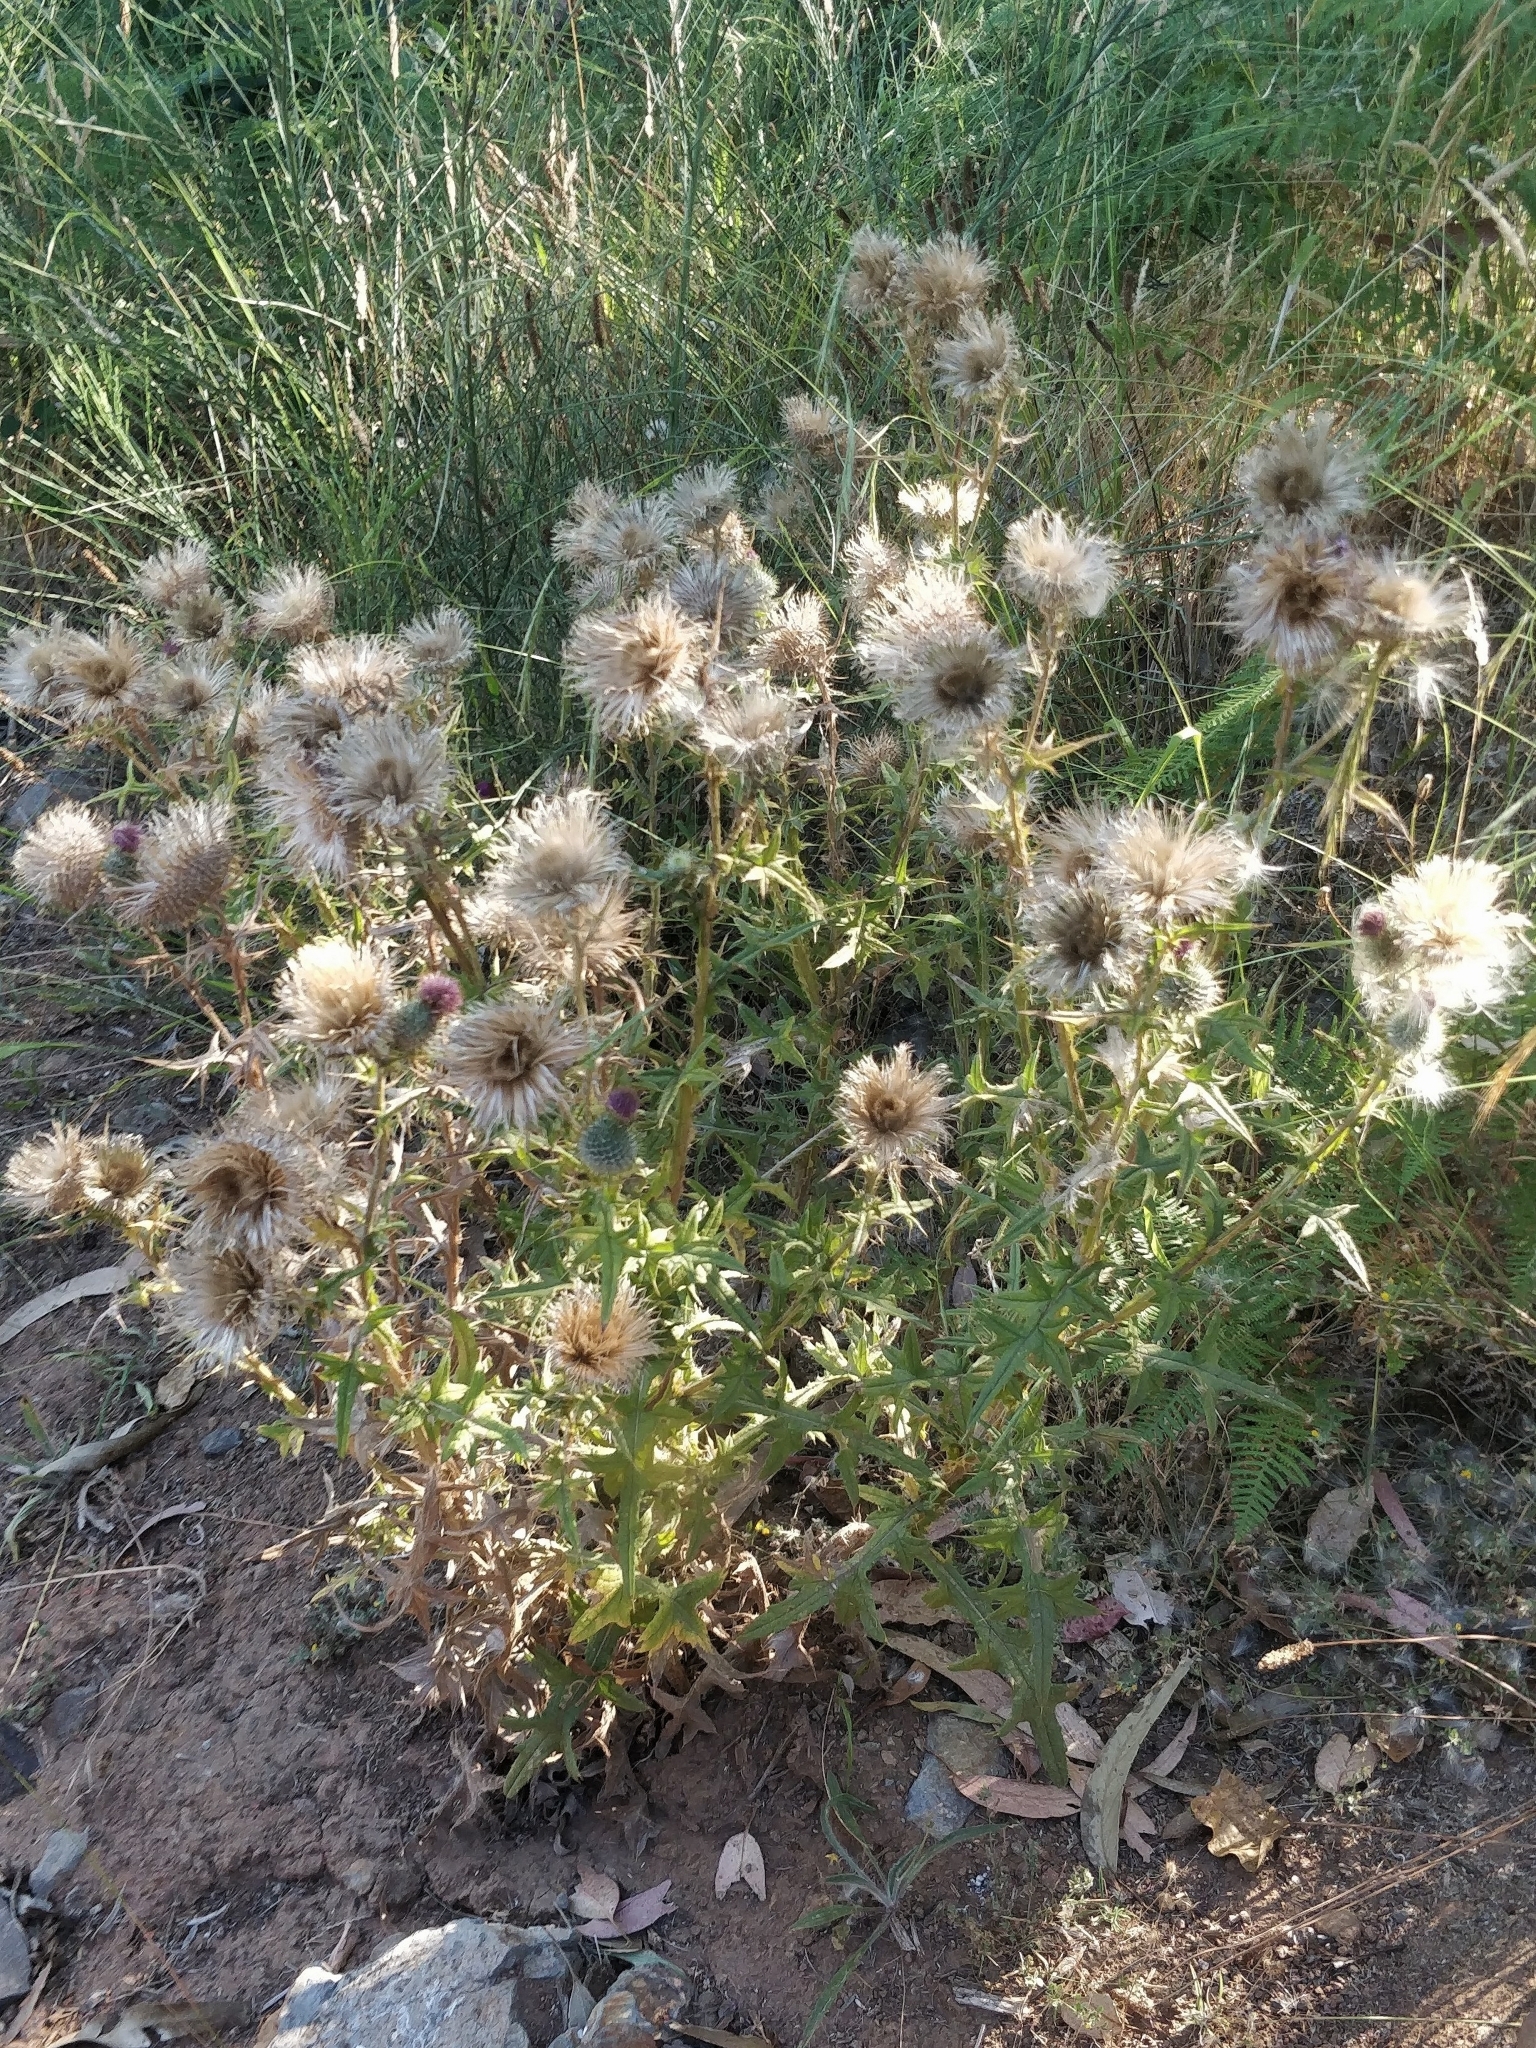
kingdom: Plantae
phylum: Tracheophyta
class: Magnoliopsida
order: Asterales
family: Asteraceae
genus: Cirsium
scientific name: Cirsium vulgare
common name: Bull thistle
